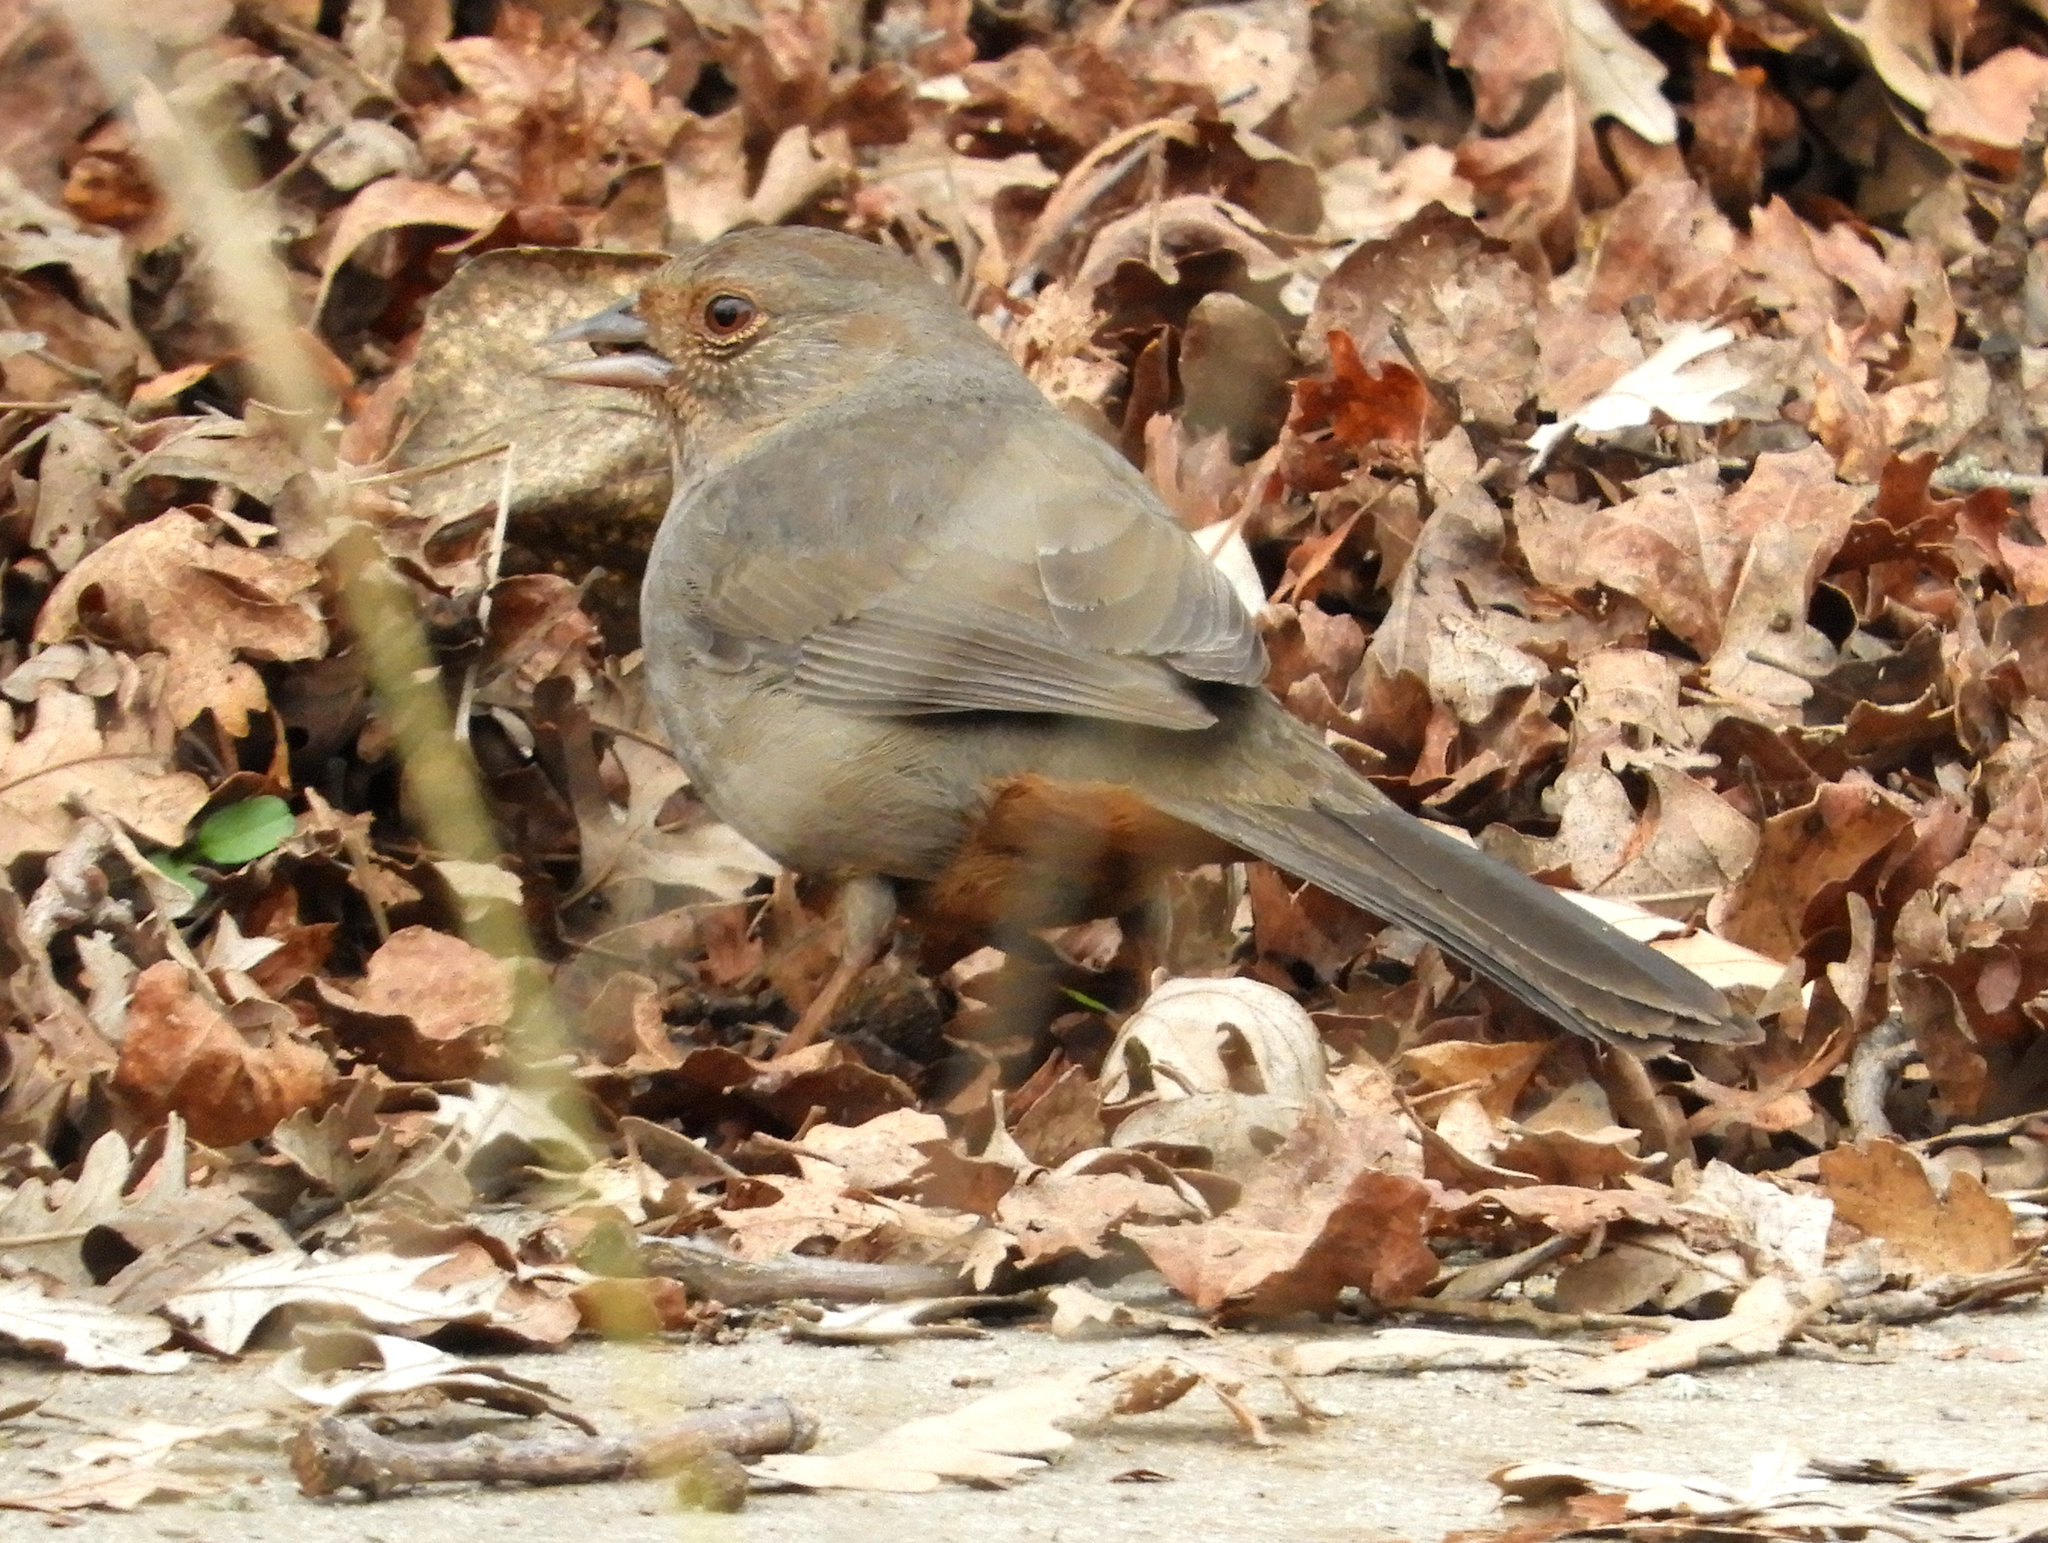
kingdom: Animalia
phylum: Chordata
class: Aves
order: Passeriformes
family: Passerellidae
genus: Melozone
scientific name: Melozone crissalis
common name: California towhee
